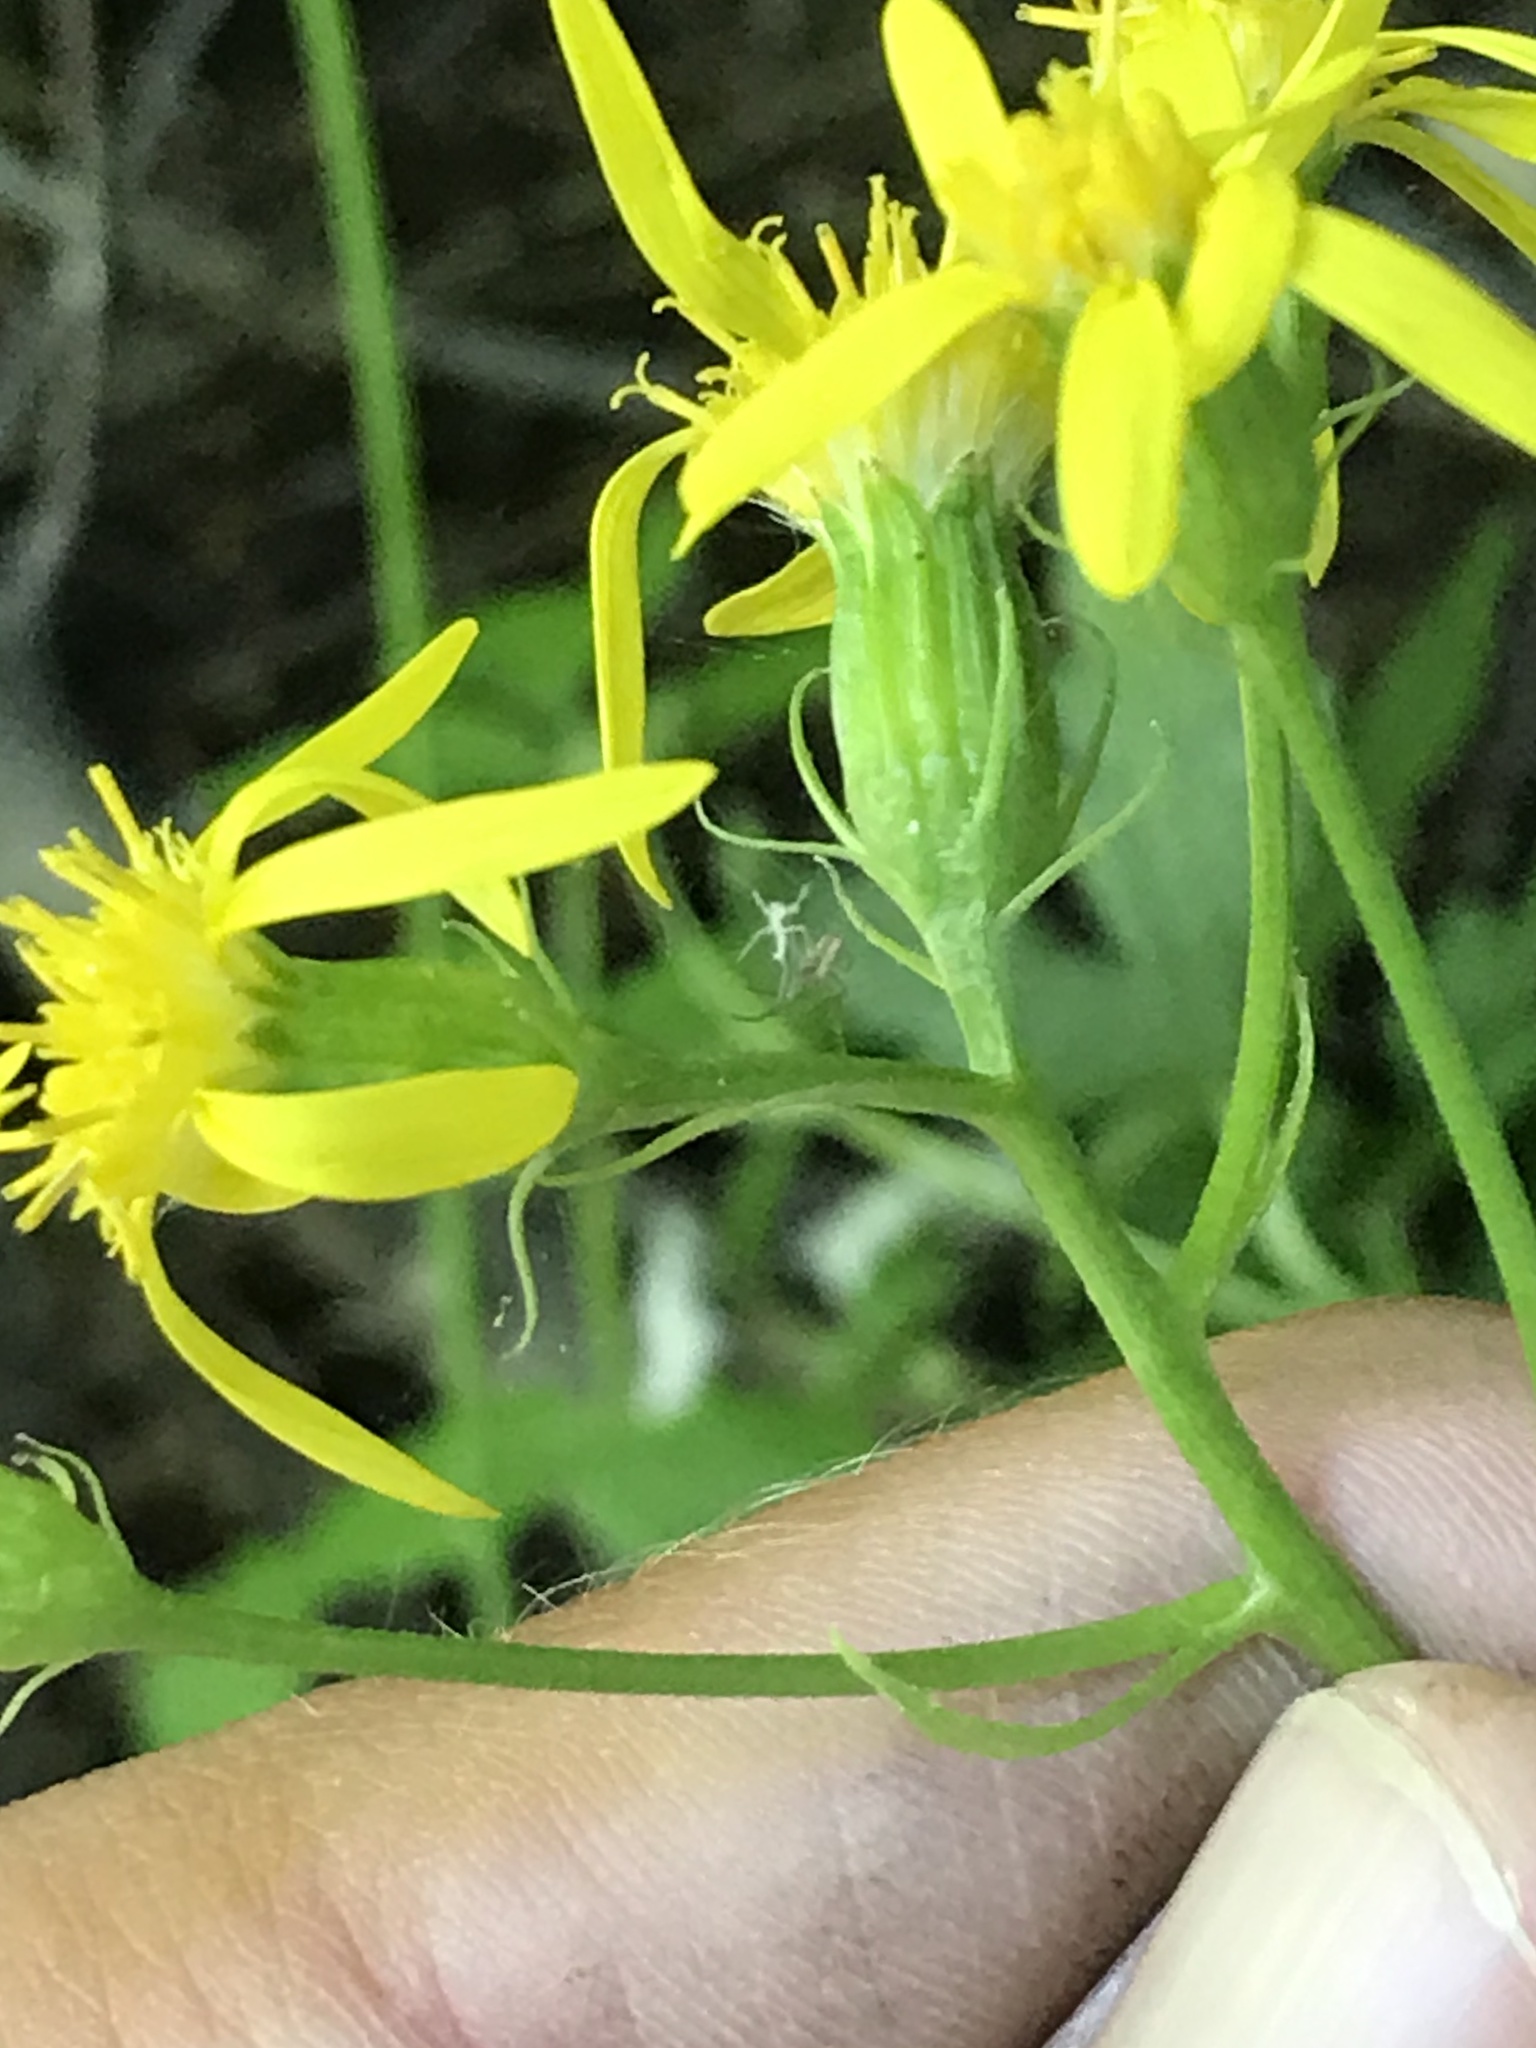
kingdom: Plantae
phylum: Tracheophyta
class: Magnoliopsida
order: Asterales
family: Asteraceae
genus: Senecio
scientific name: Senecio triangularis
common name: Arrowleaf butterweed
